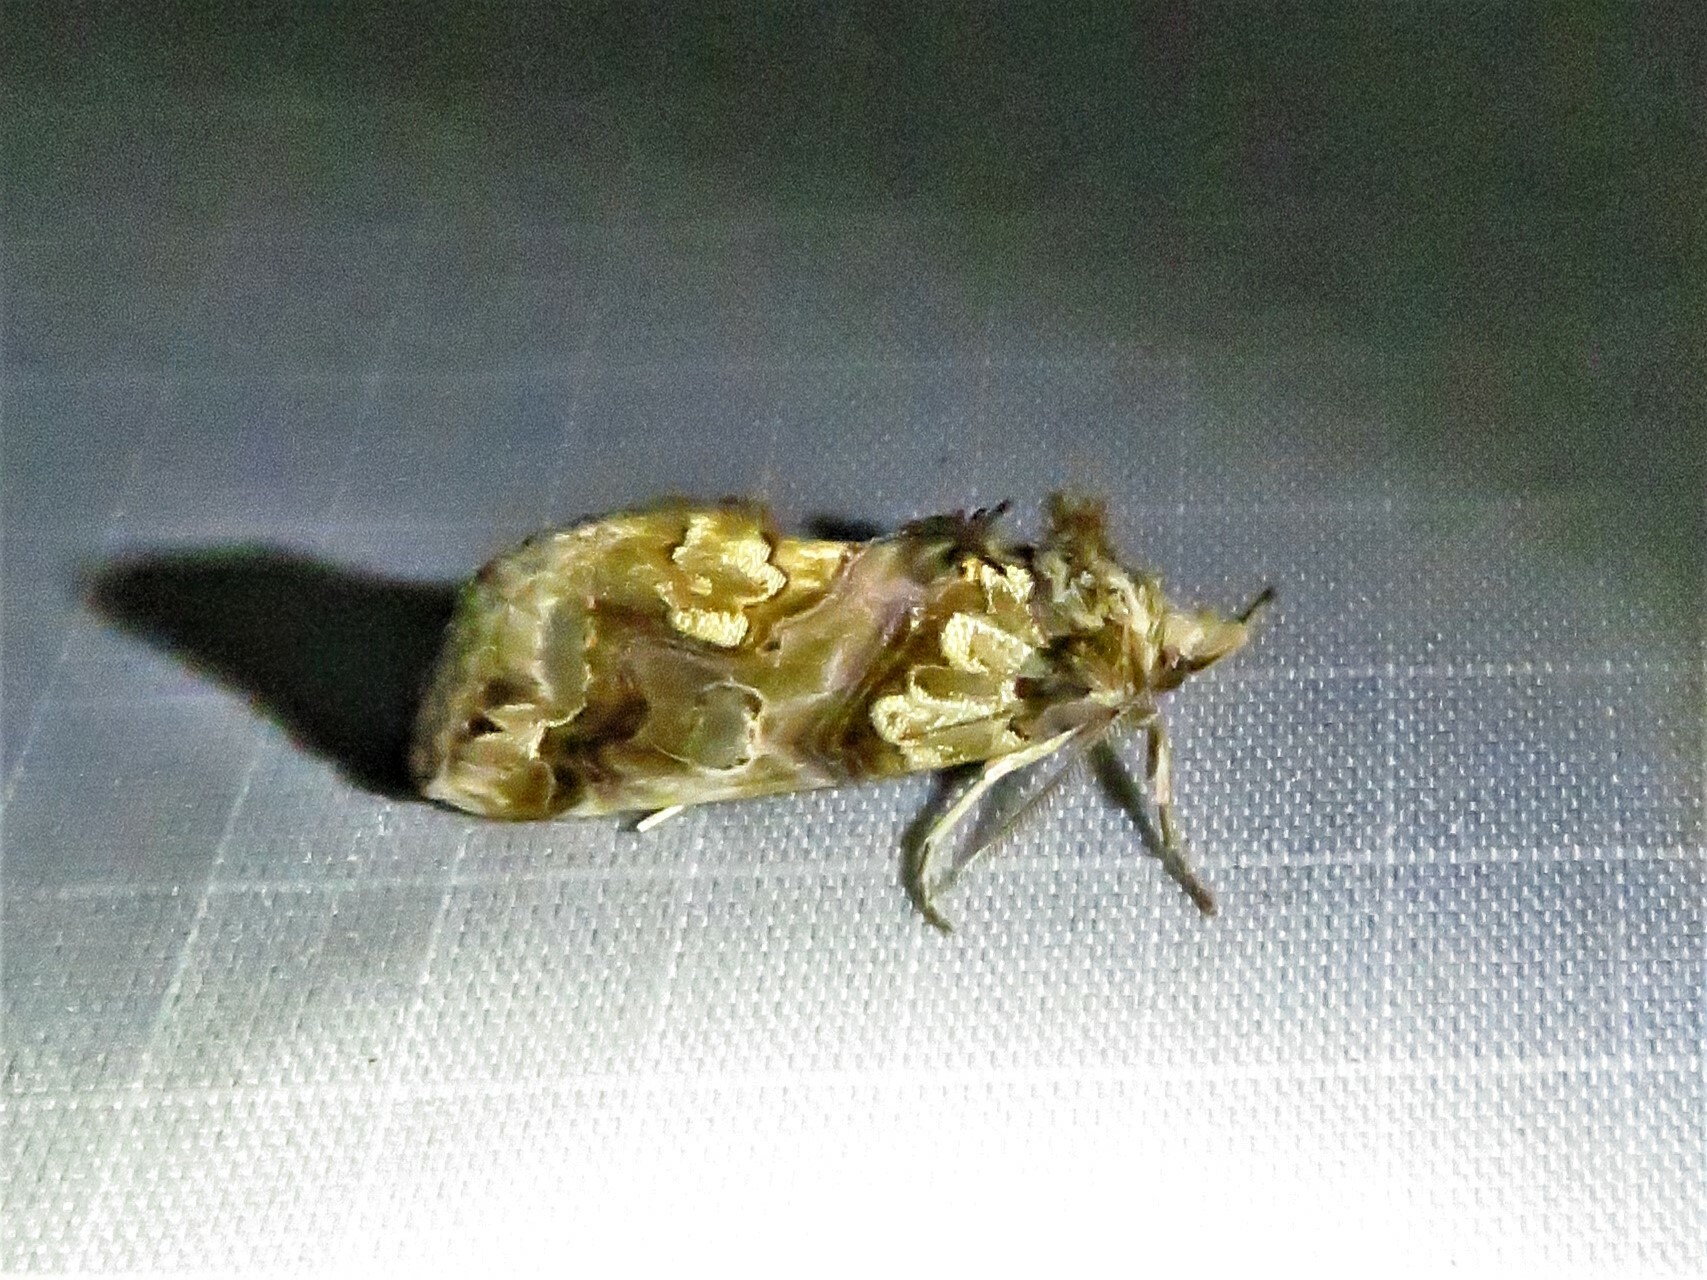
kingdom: Animalia
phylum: Arthropoda
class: Insecta
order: Lepidoptera
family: Erebidae
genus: Plusiodonta
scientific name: Plusiodonta compressipalpis
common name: Moonseed moth
